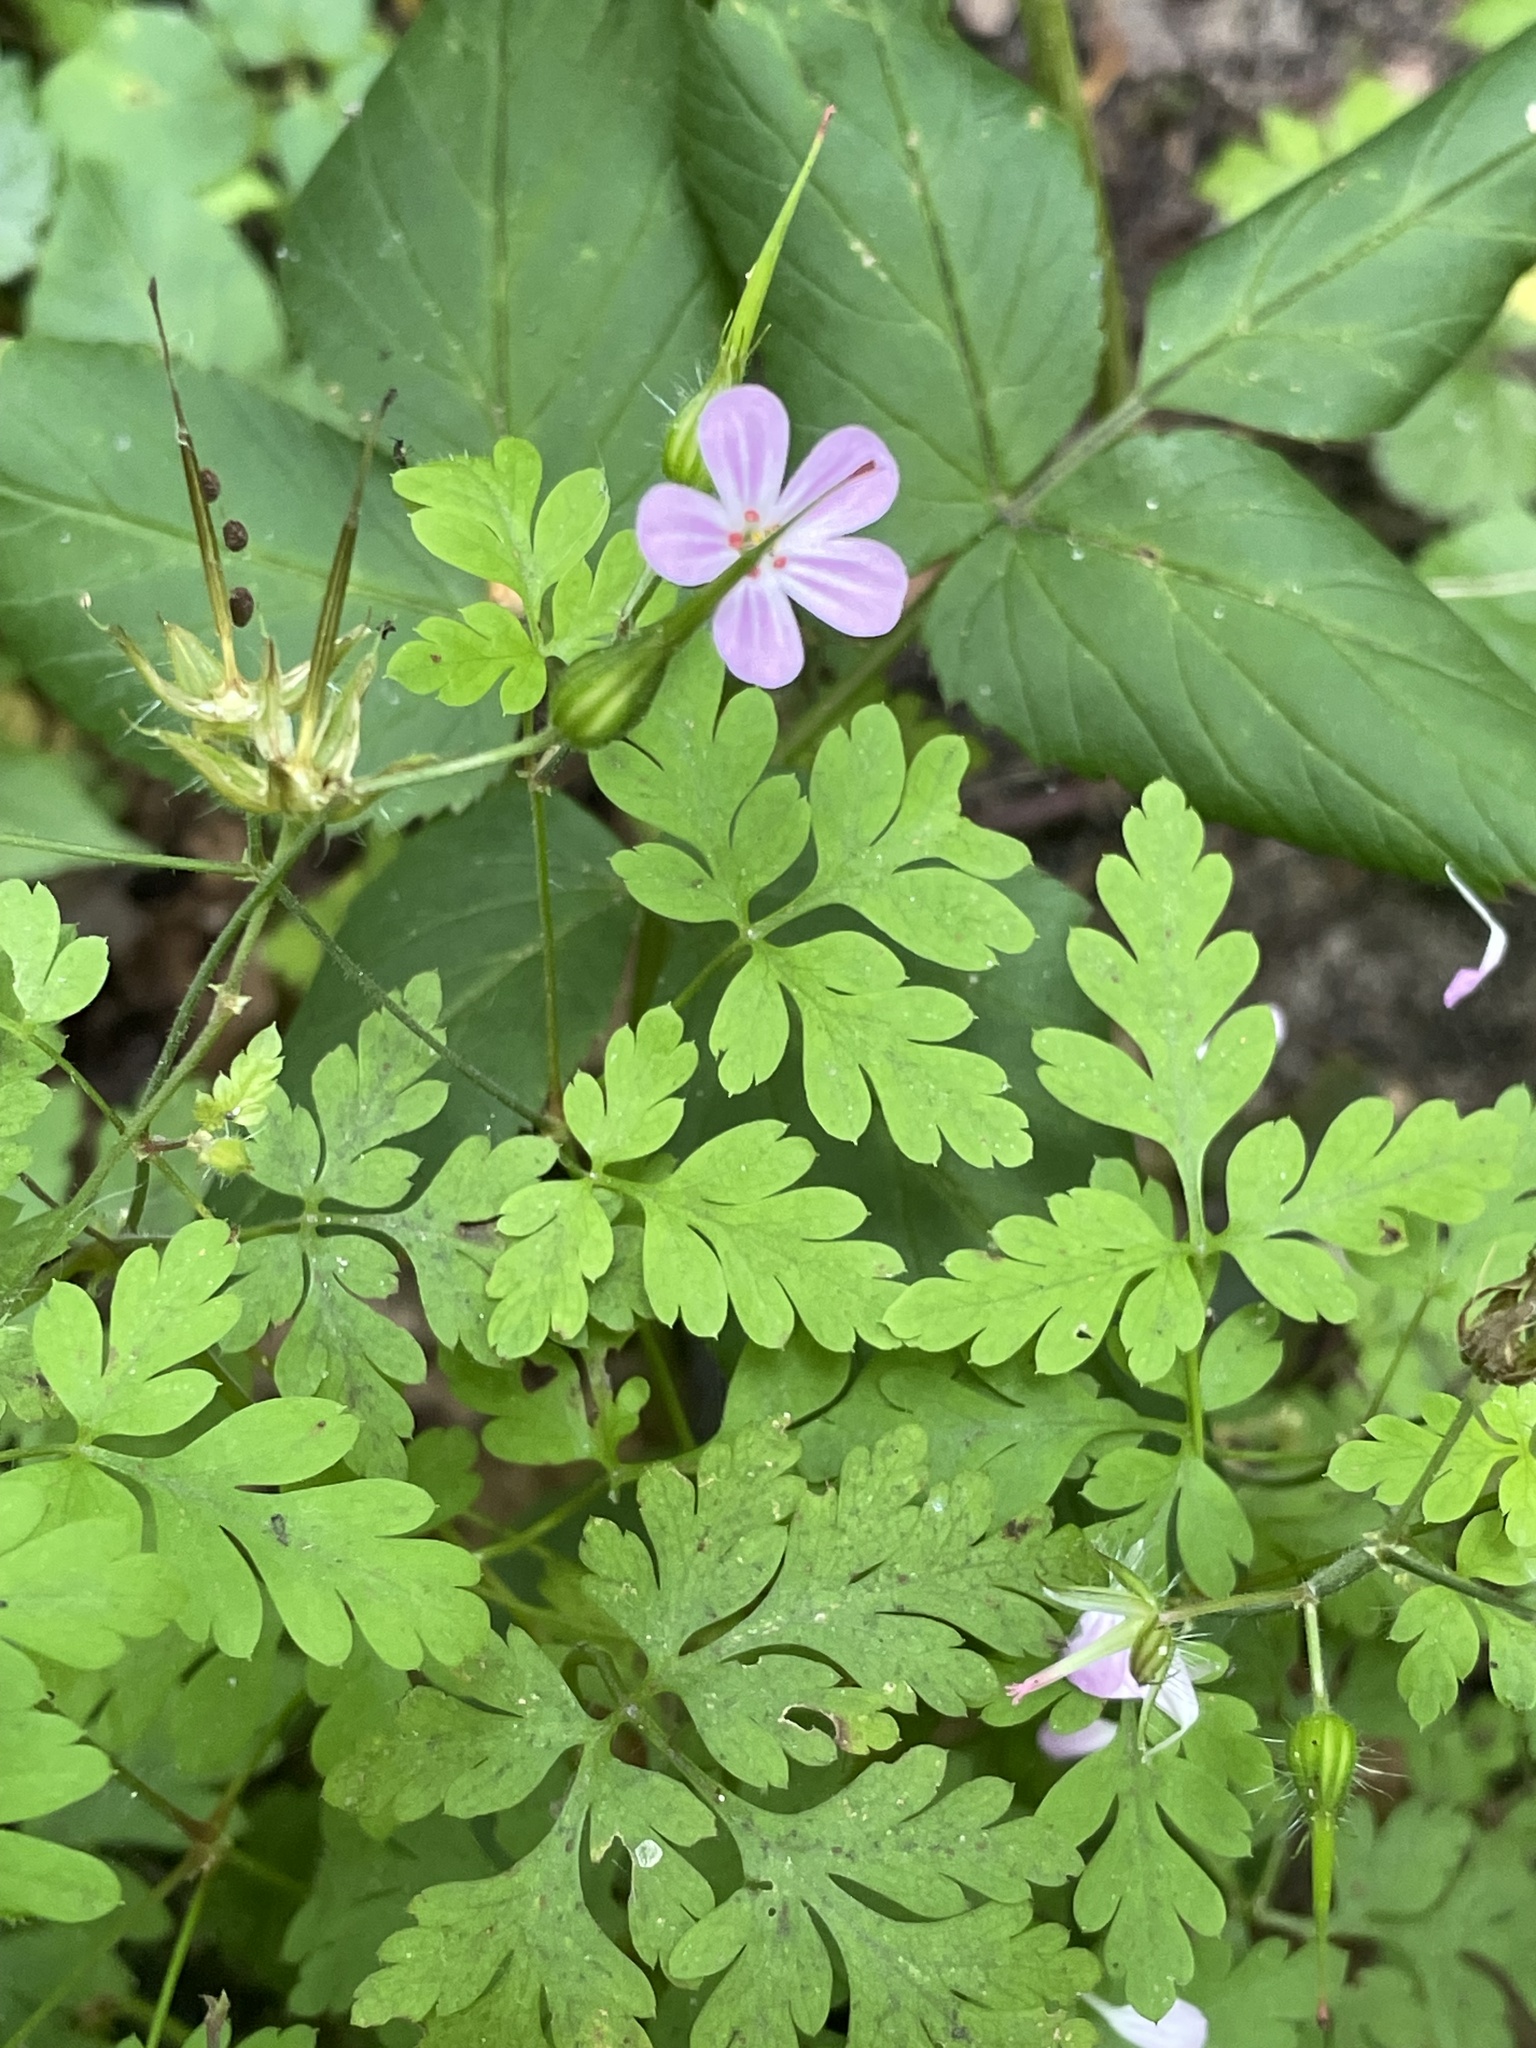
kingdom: Plantae
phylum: Tracheophyta
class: Magnoliopsida
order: Geraniales
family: Geraniaceae
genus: Geranium
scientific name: Geranium robertianum
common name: Herb-robert
